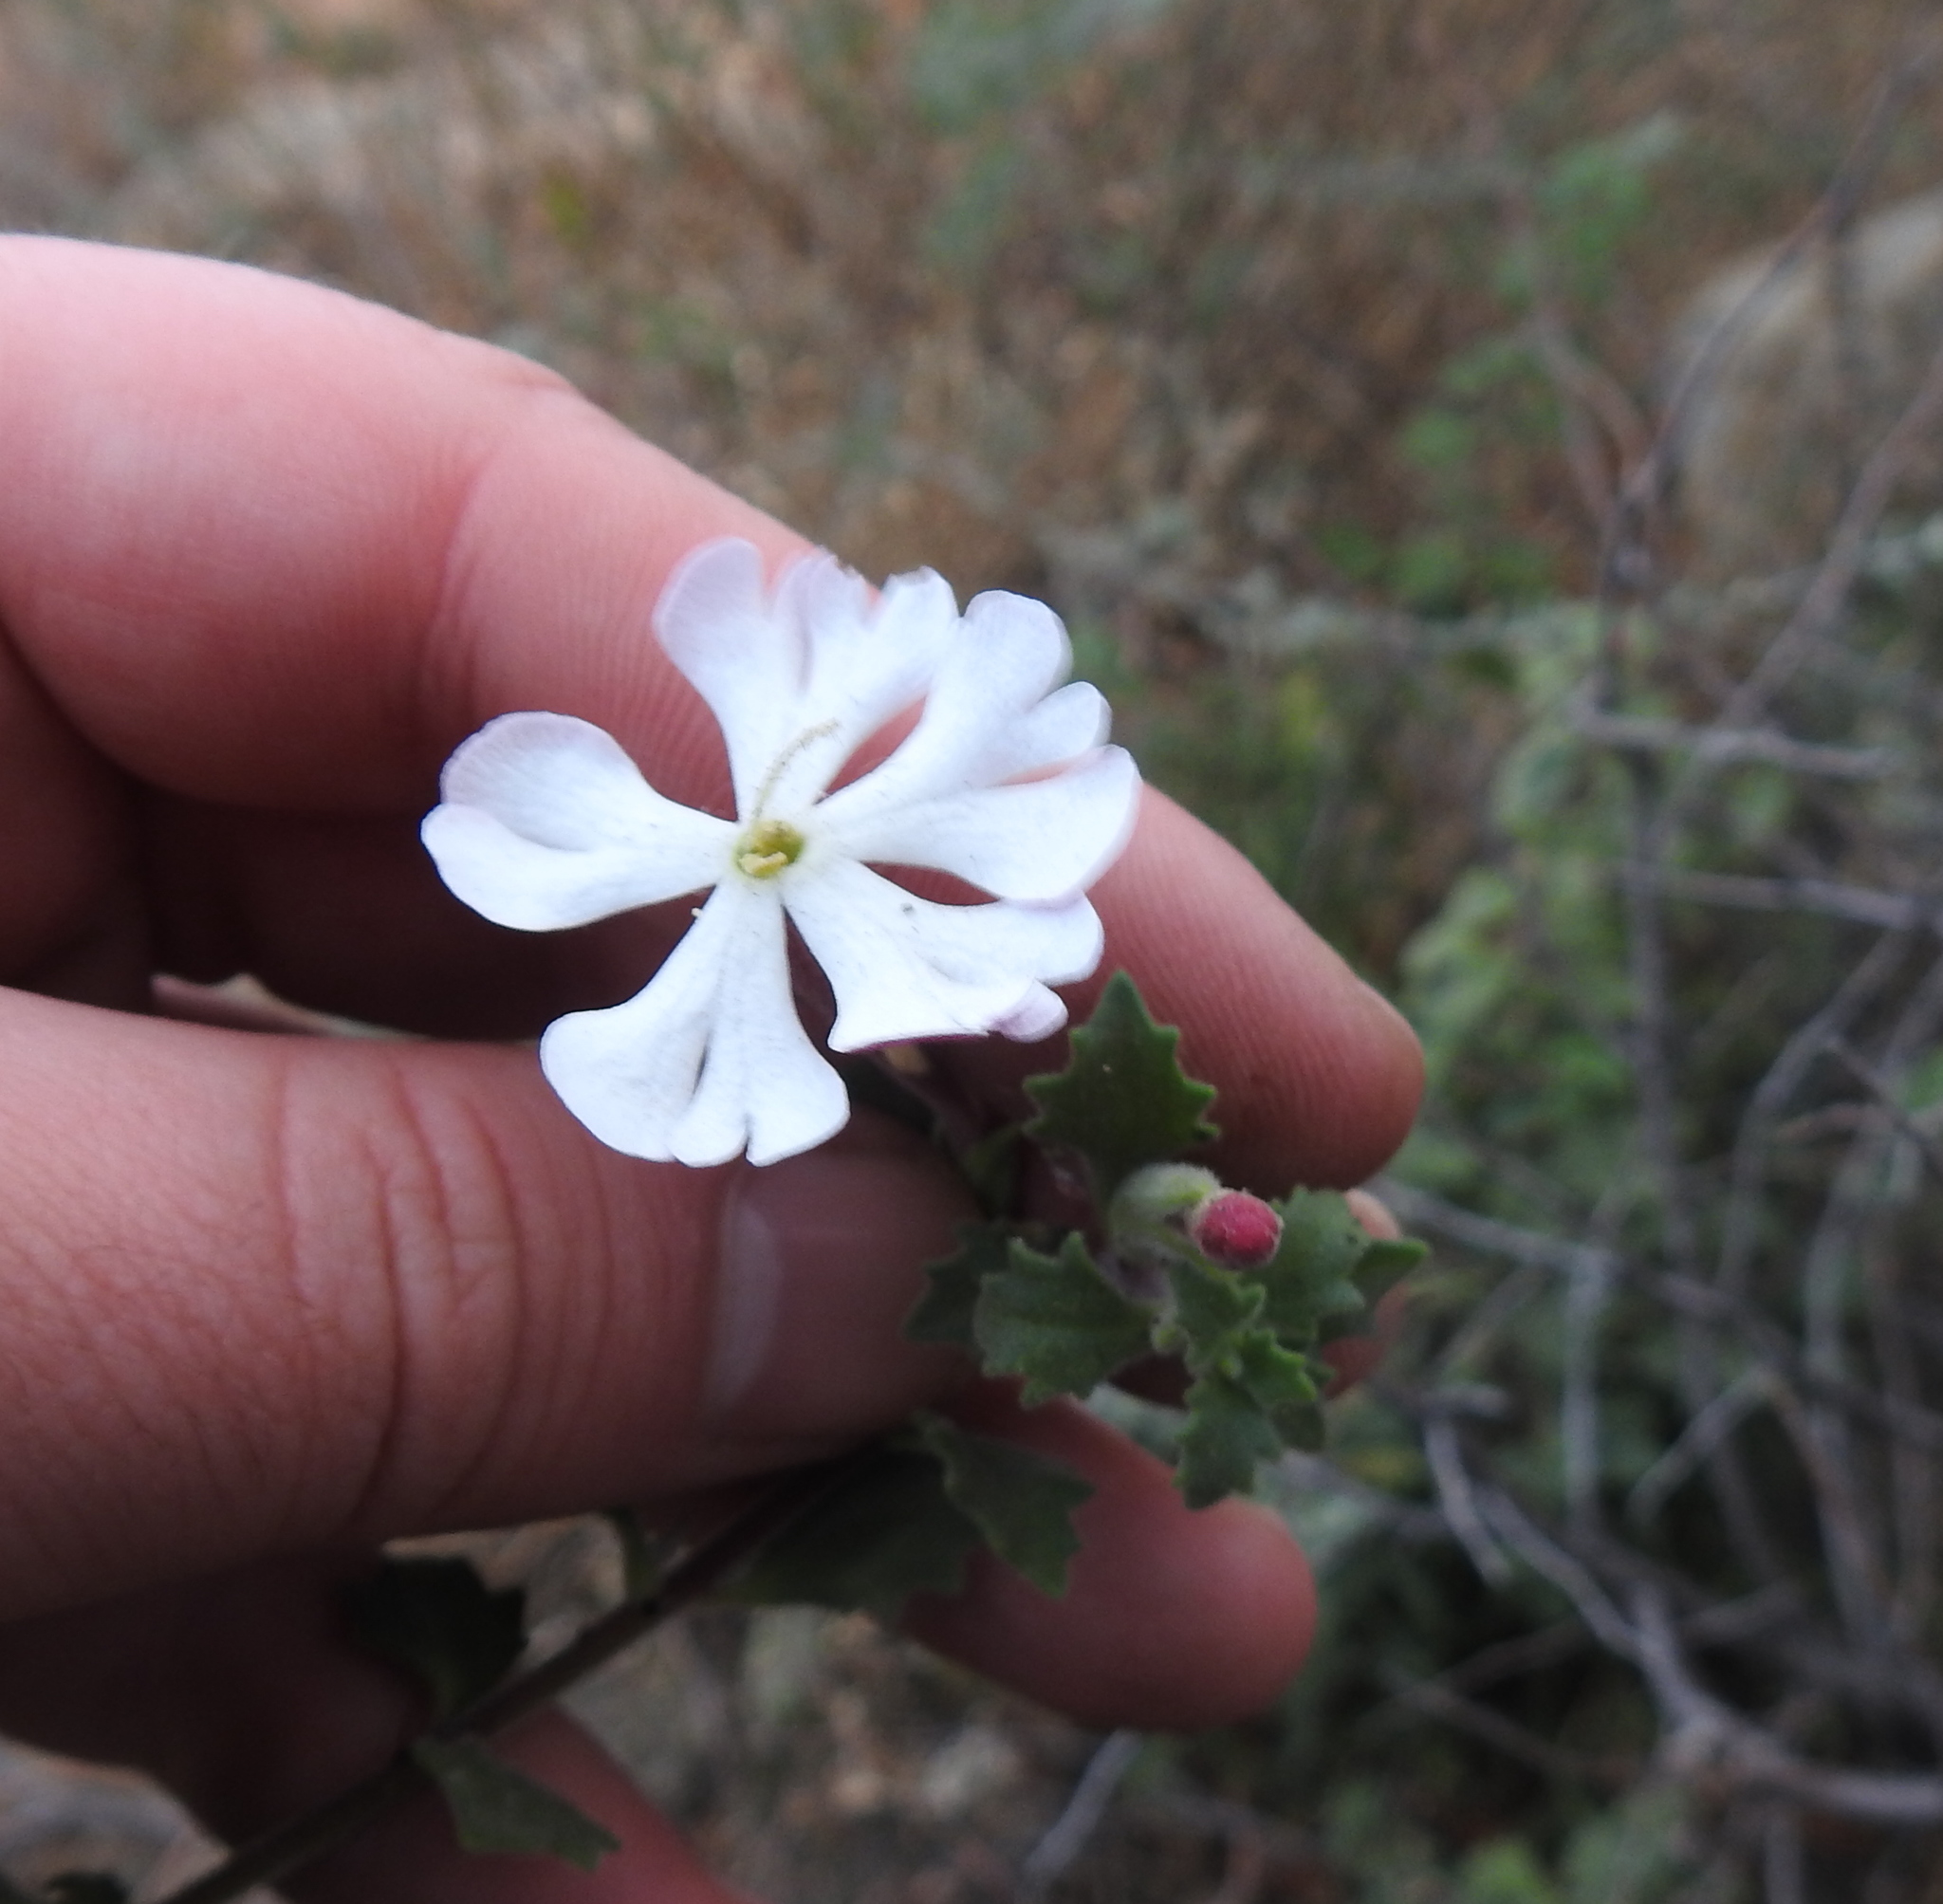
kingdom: Plantae
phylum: Tracheophyta
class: Magnoliopsida
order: Lamiales
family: Scrophulariaceae
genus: Zaluzianskya
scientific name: Zaluzianskya katharinae
